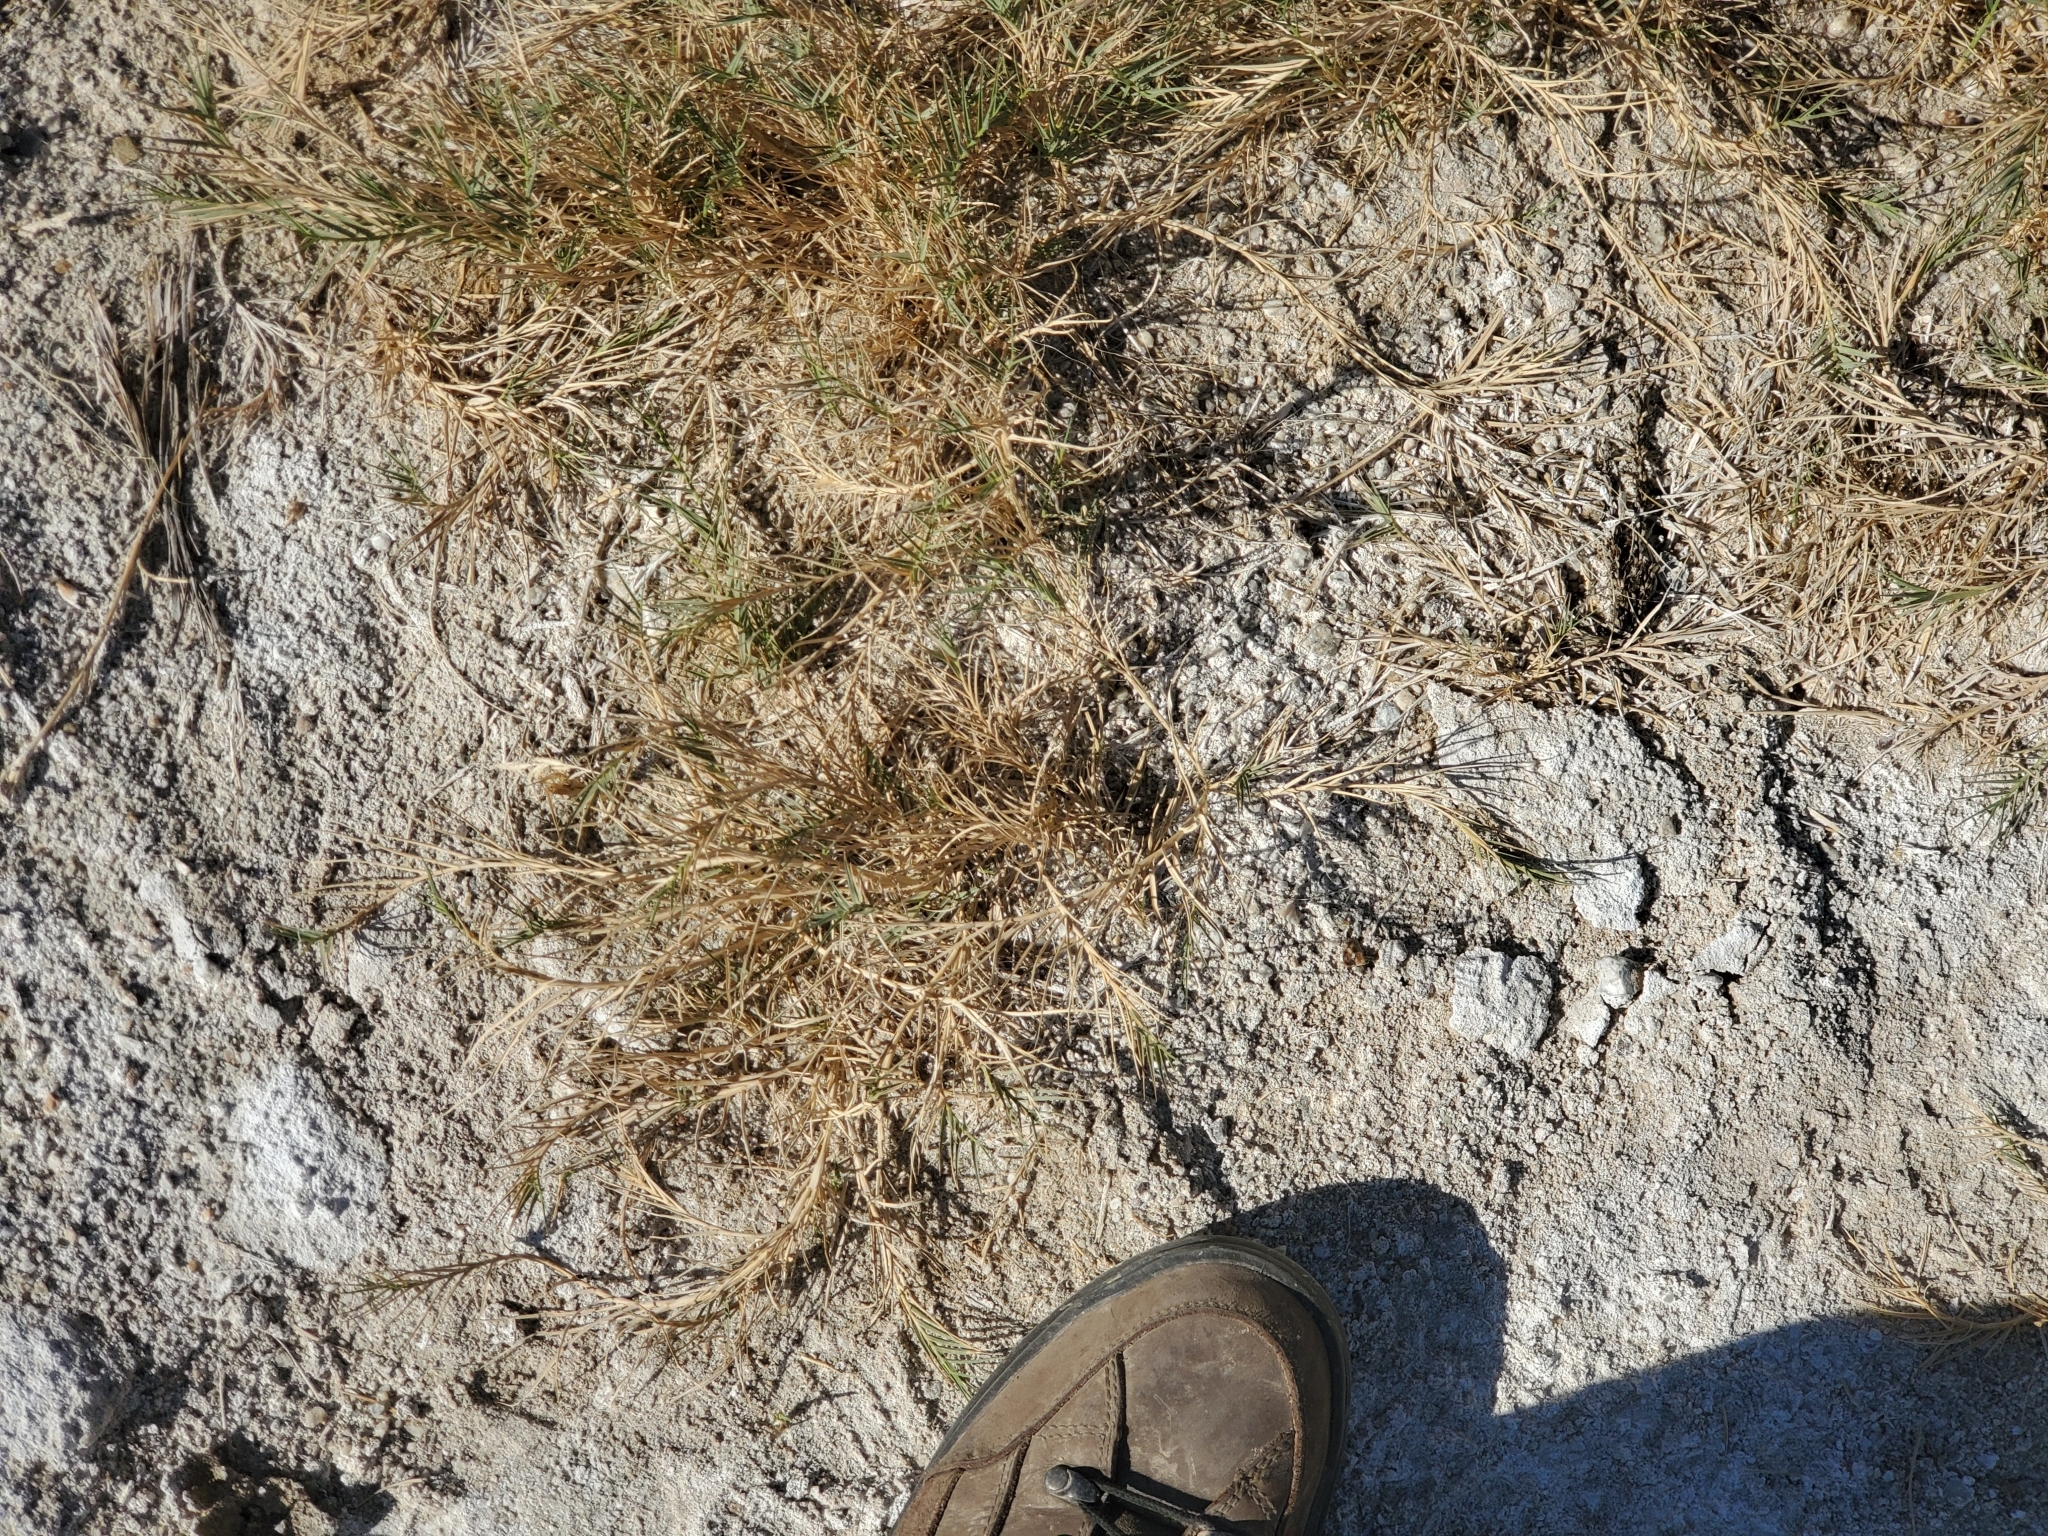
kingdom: Plantae
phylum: Tracheophyta
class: Liliopsida
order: Poales
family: Poaceae
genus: Distichlis
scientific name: Distichlis spicata
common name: Saltgrass
